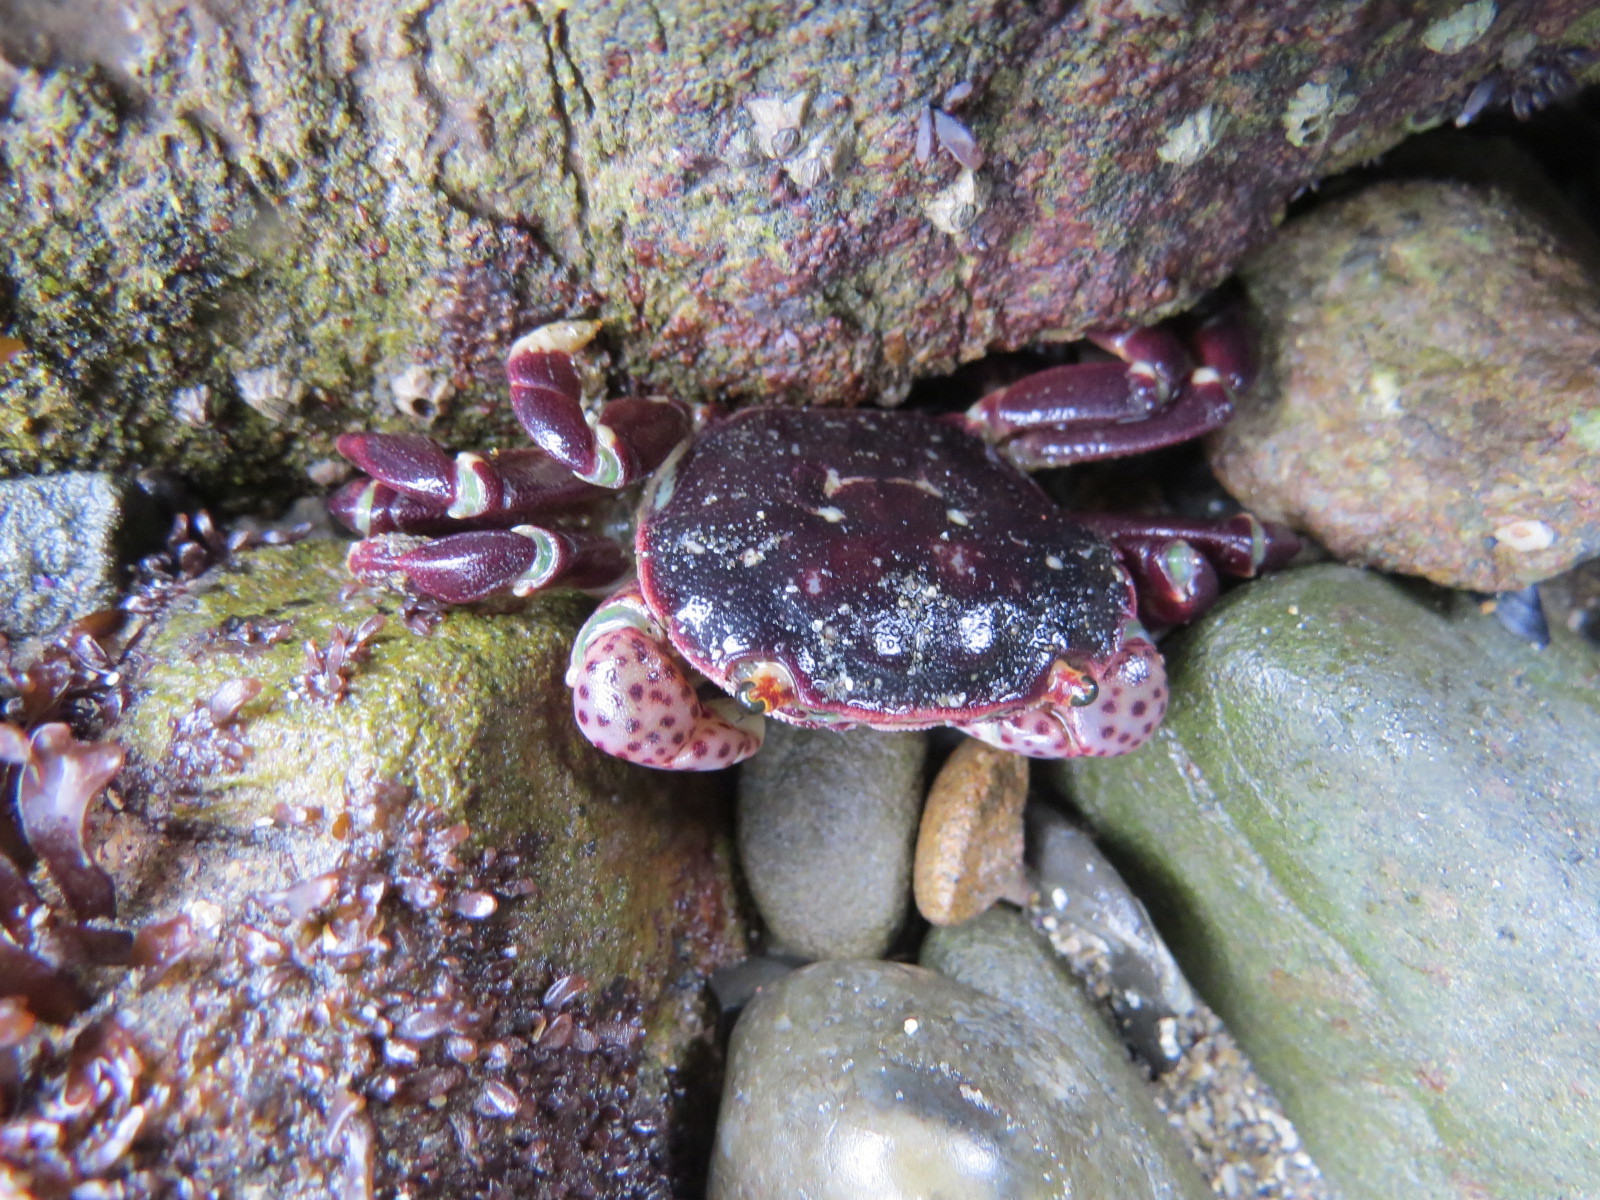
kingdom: Animalia
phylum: Arthropoda
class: Malacostraca
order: Decapoda
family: Varunidae
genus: Hemigrapsus
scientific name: Hemigrapsus nudus
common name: Purple shore crab
